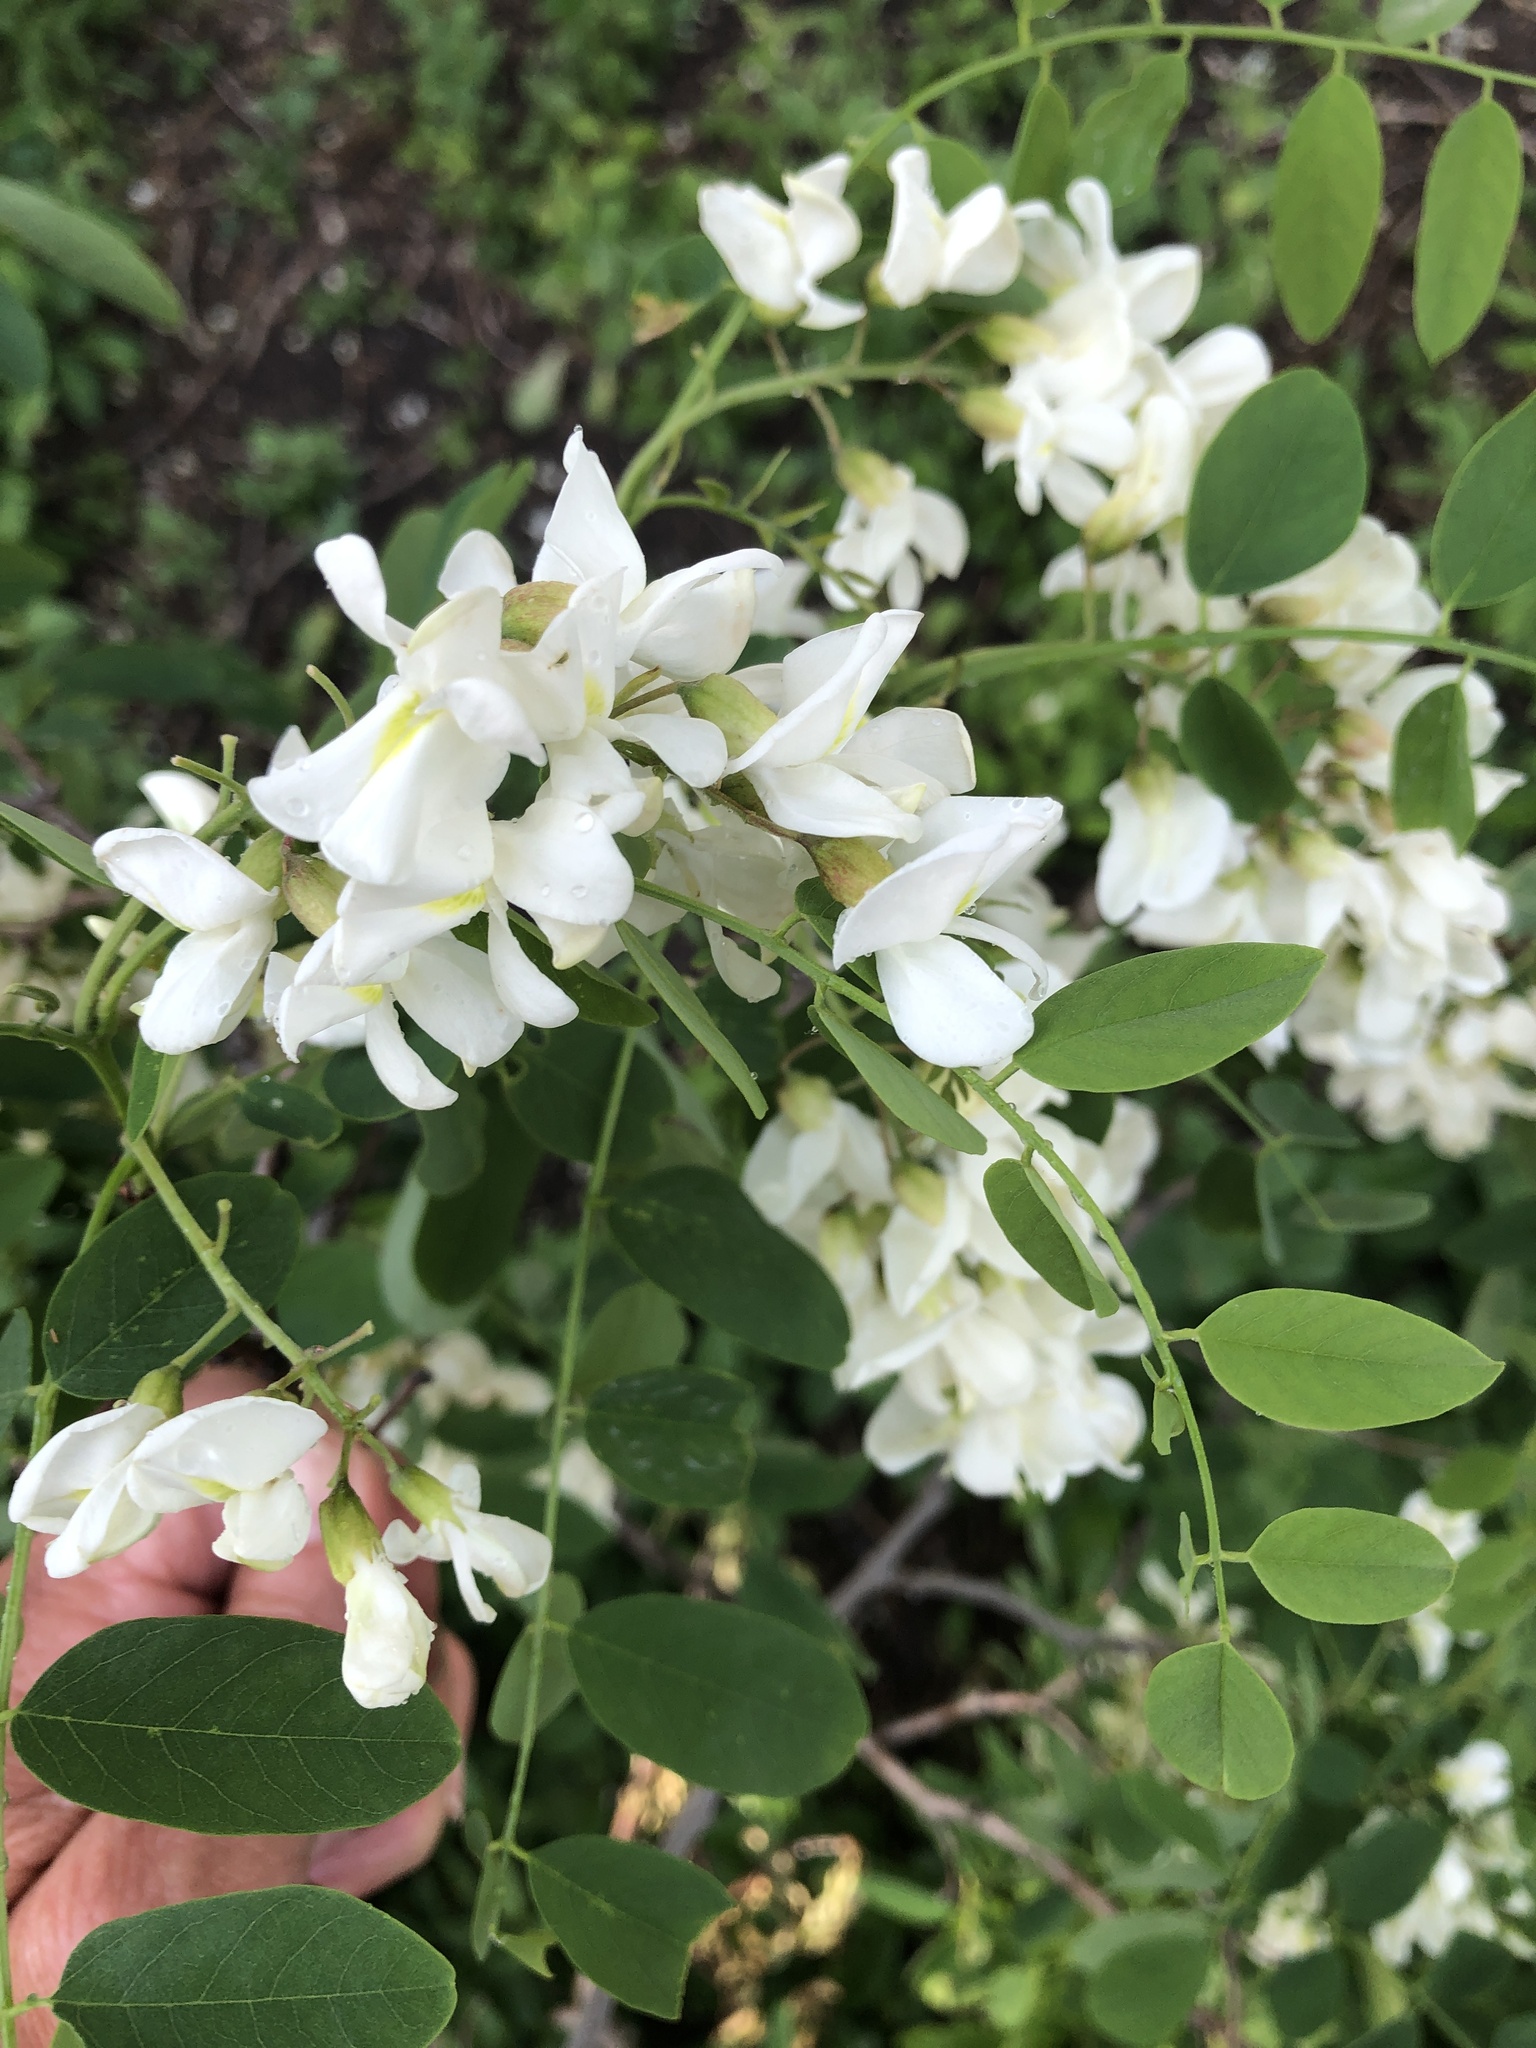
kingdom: Plantae
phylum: Tracheophyta
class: Magnoliopsida
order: Fabales
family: Fabaceae
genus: Robinia
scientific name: Robinia pseudoacacia
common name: Black locust
